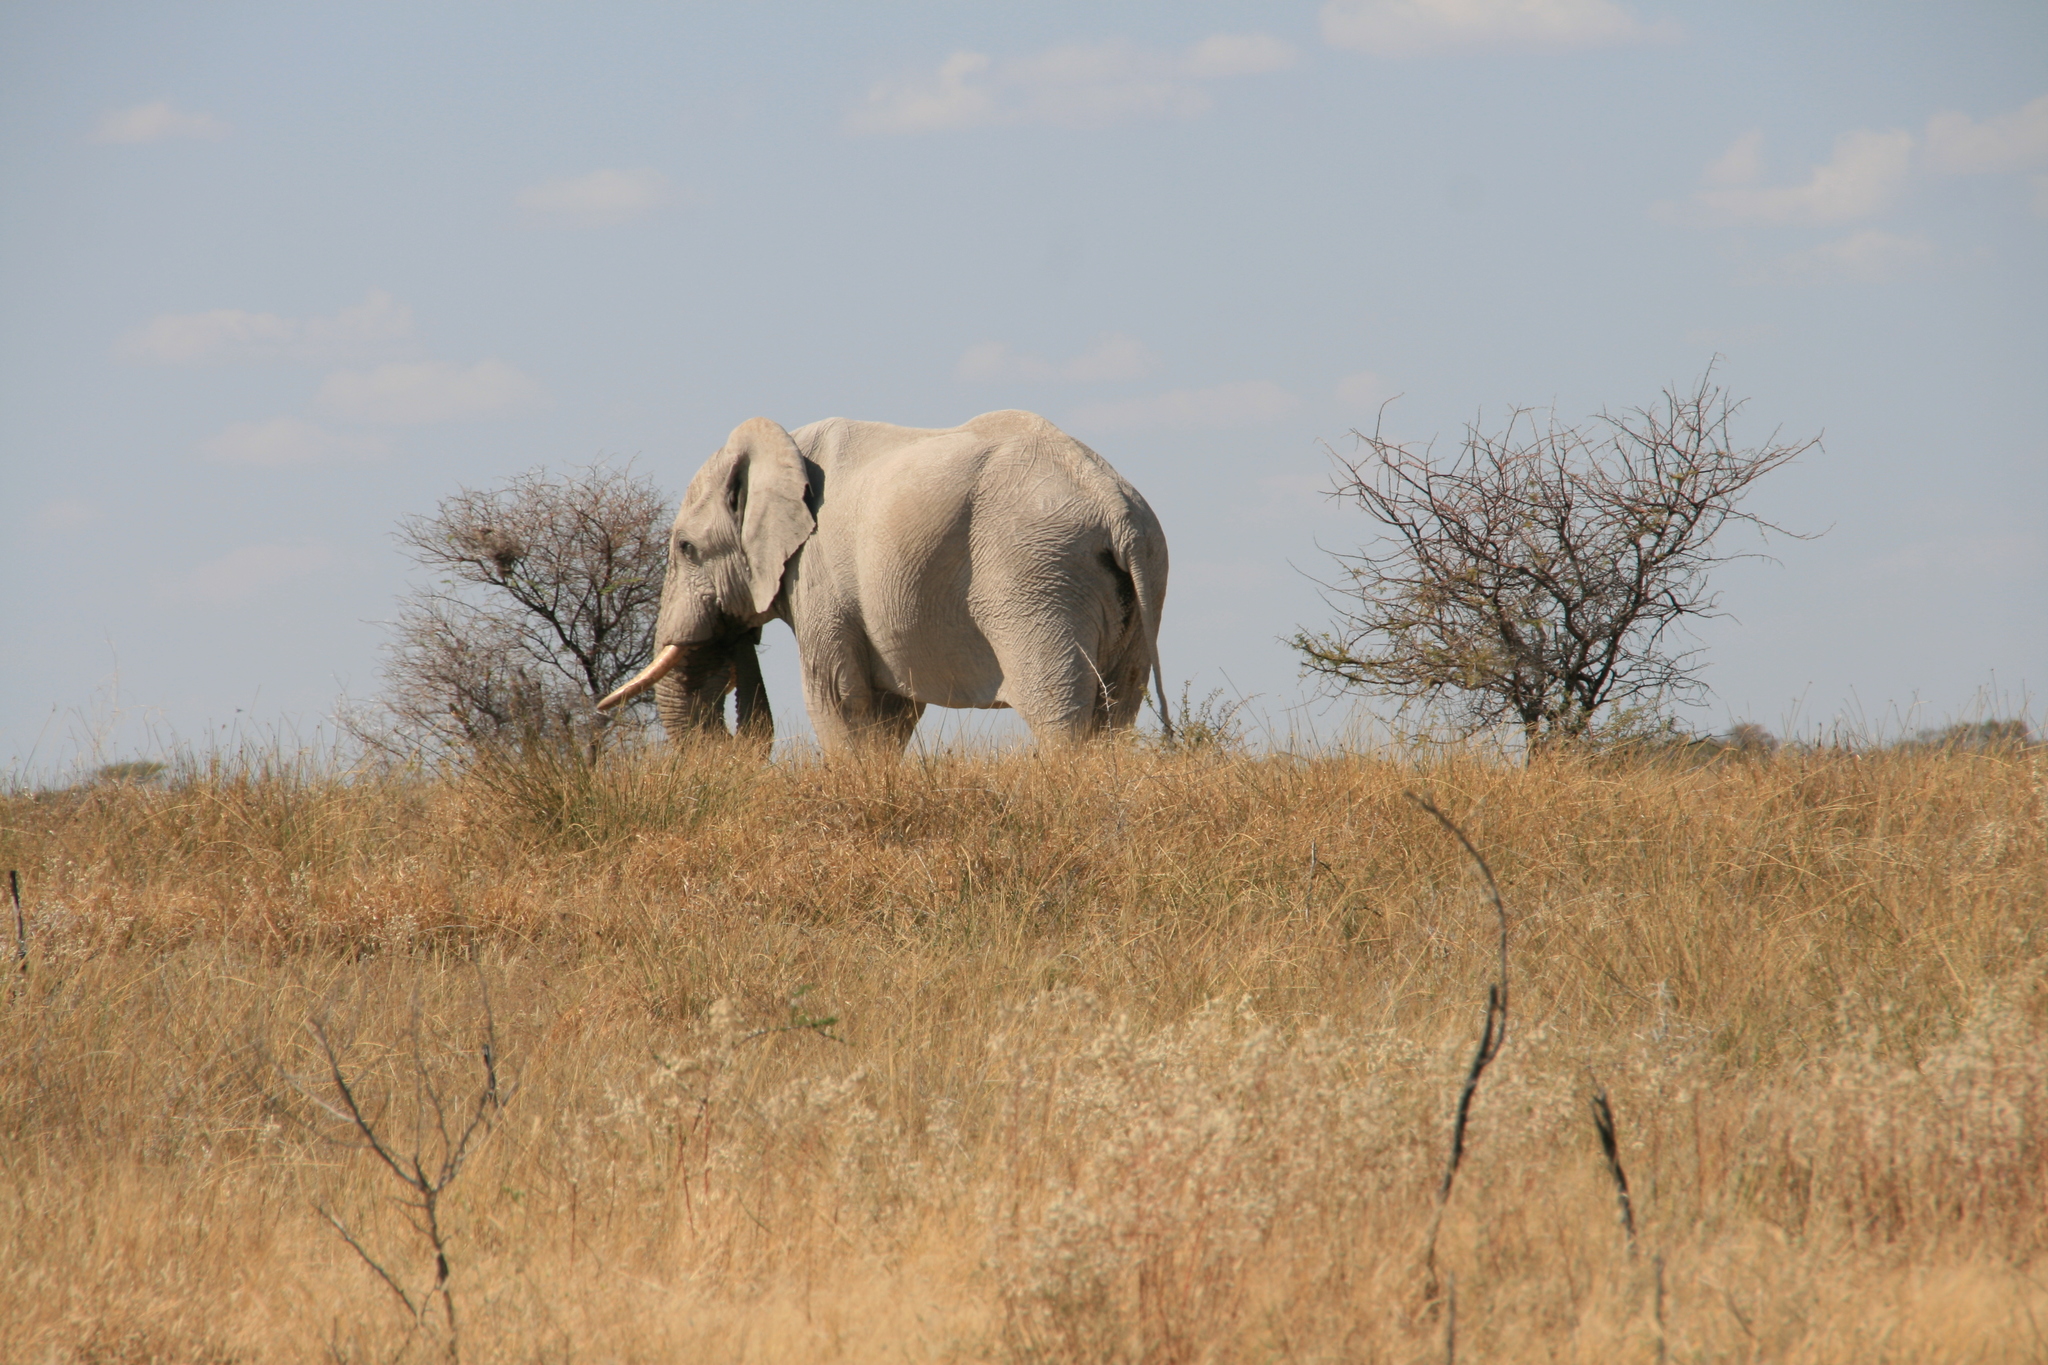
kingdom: Animalia
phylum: Chordata
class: Mammalia
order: Proboscidea
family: Elephantidae
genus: Loxodonta
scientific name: Loxodonta africana
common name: African elephant
